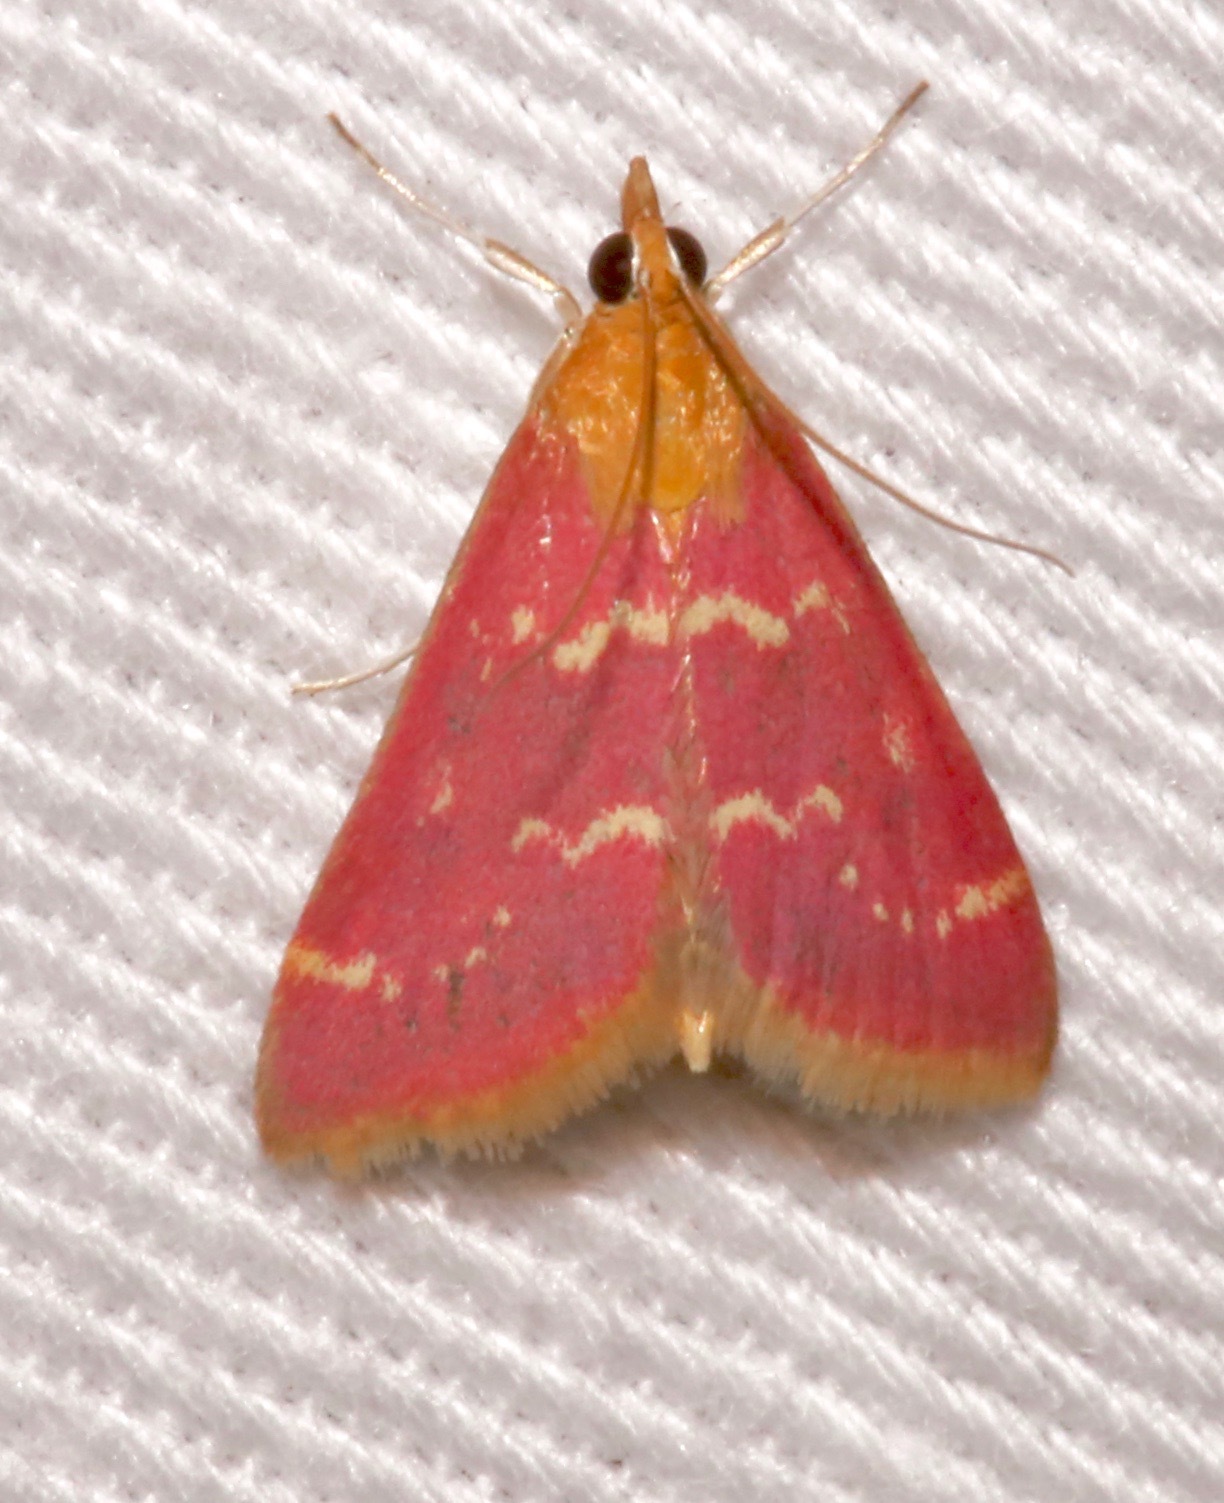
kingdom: Animalia
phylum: Arthropoda
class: Insecta
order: Lepidoptera
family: Crambidae
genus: Pyrausta
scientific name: Pyrausta signatalis
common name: Raspberry pyrausta moth
